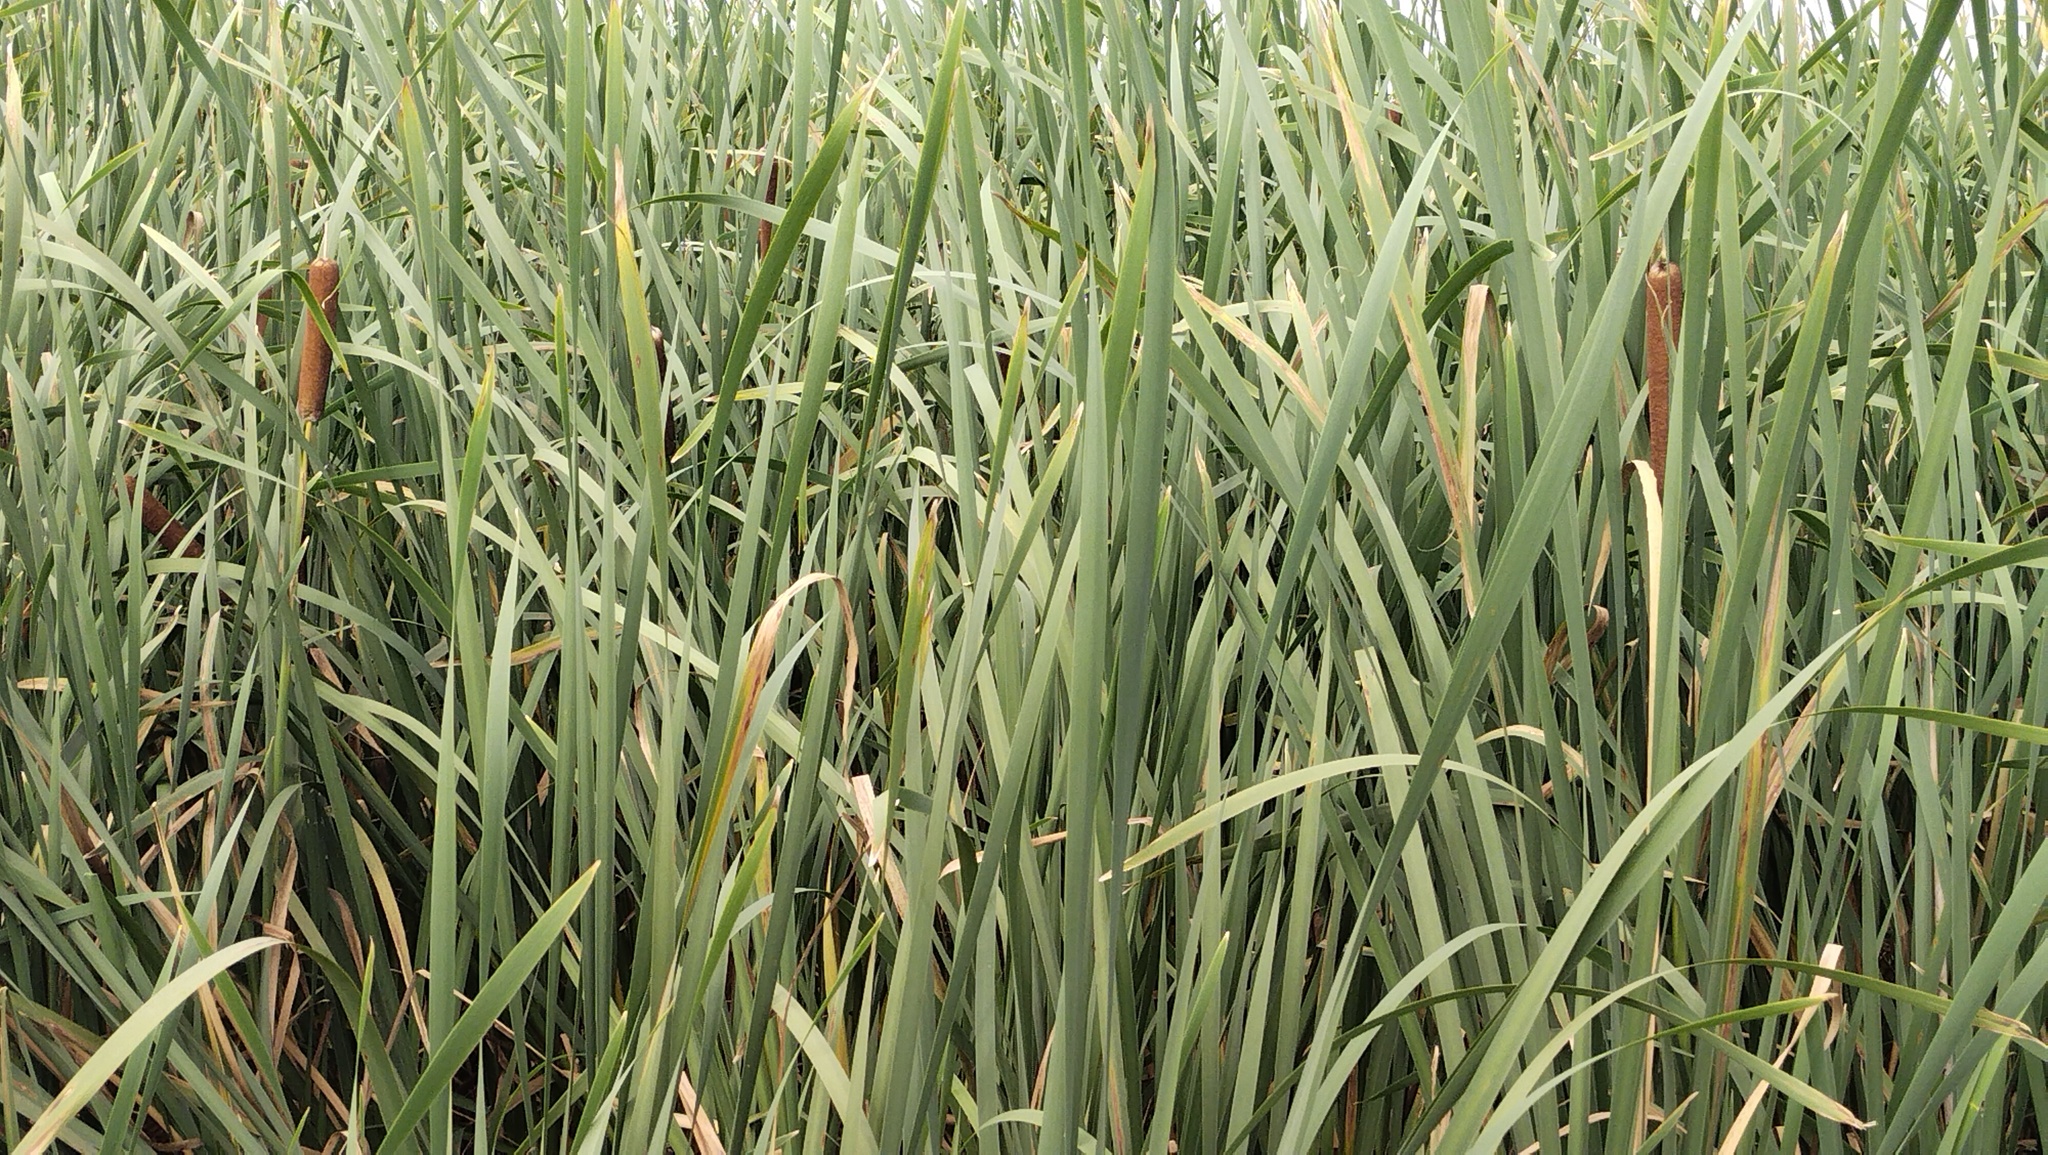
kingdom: Plantae
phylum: Tracheophyta
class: Liliopsida
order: Poales
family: Typhaceae
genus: Typha
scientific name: Typha latifolia
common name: Broadleaf cattail
